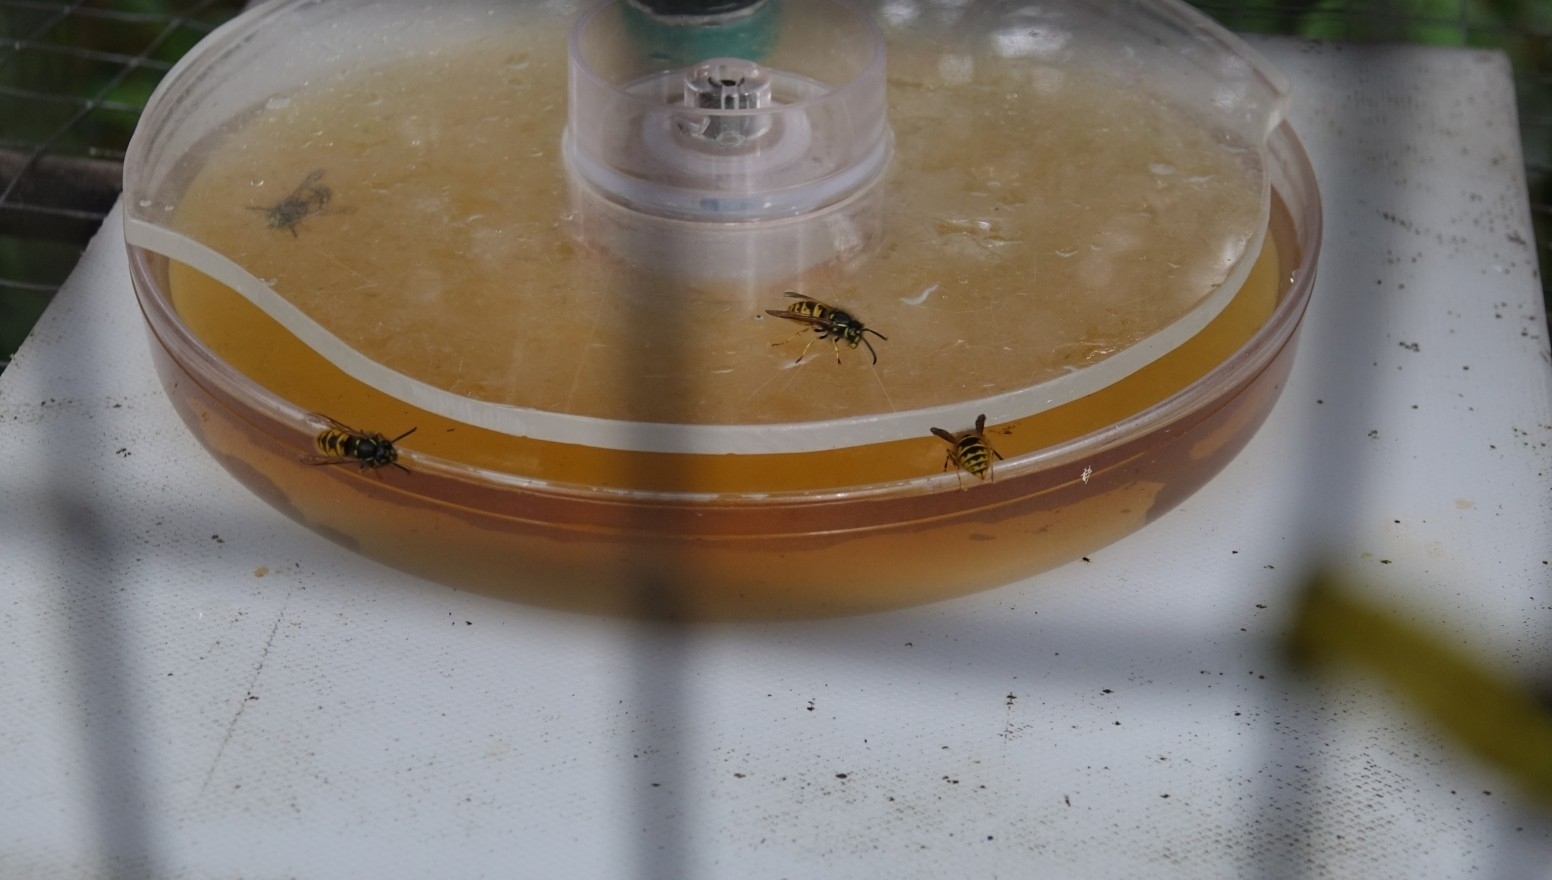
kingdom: Animalia
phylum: Arthropoda
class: Insecta
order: Hymenoptera
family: Vespidae
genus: Vespula
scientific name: Vespula vulgaris
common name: Common wasp
